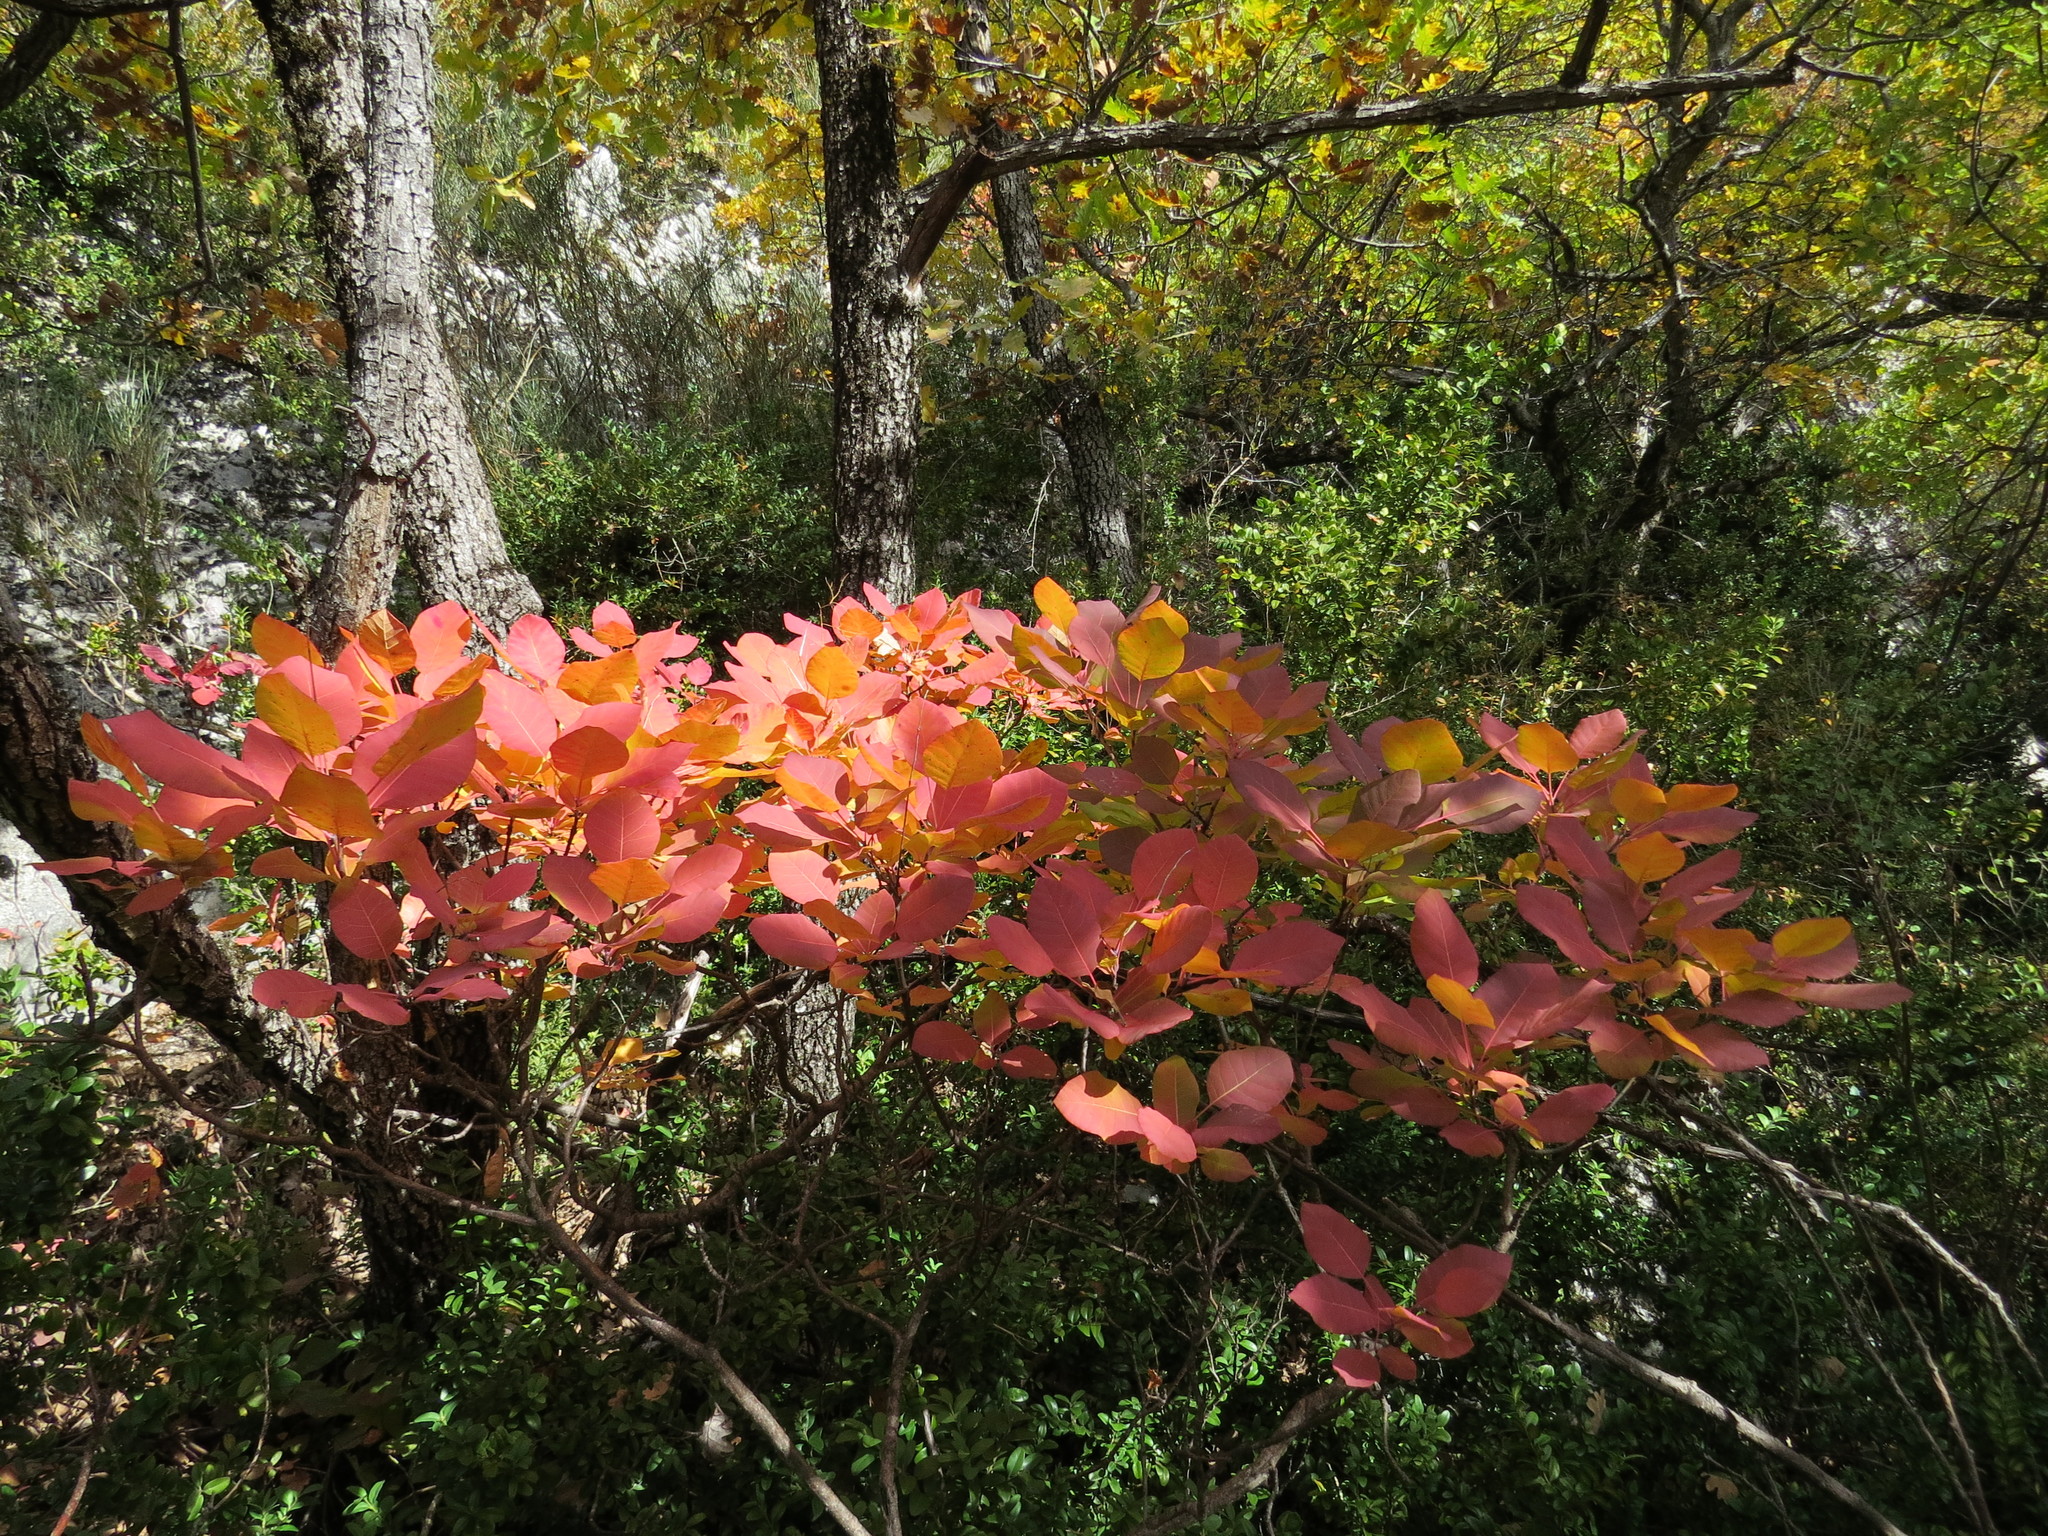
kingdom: Plantae
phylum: Tracheophyta
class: Magnoliopsida
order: Sapindales
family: Anacardiaceae
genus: Cotinus
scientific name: Cotinus coggygria
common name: Smoke-tree
